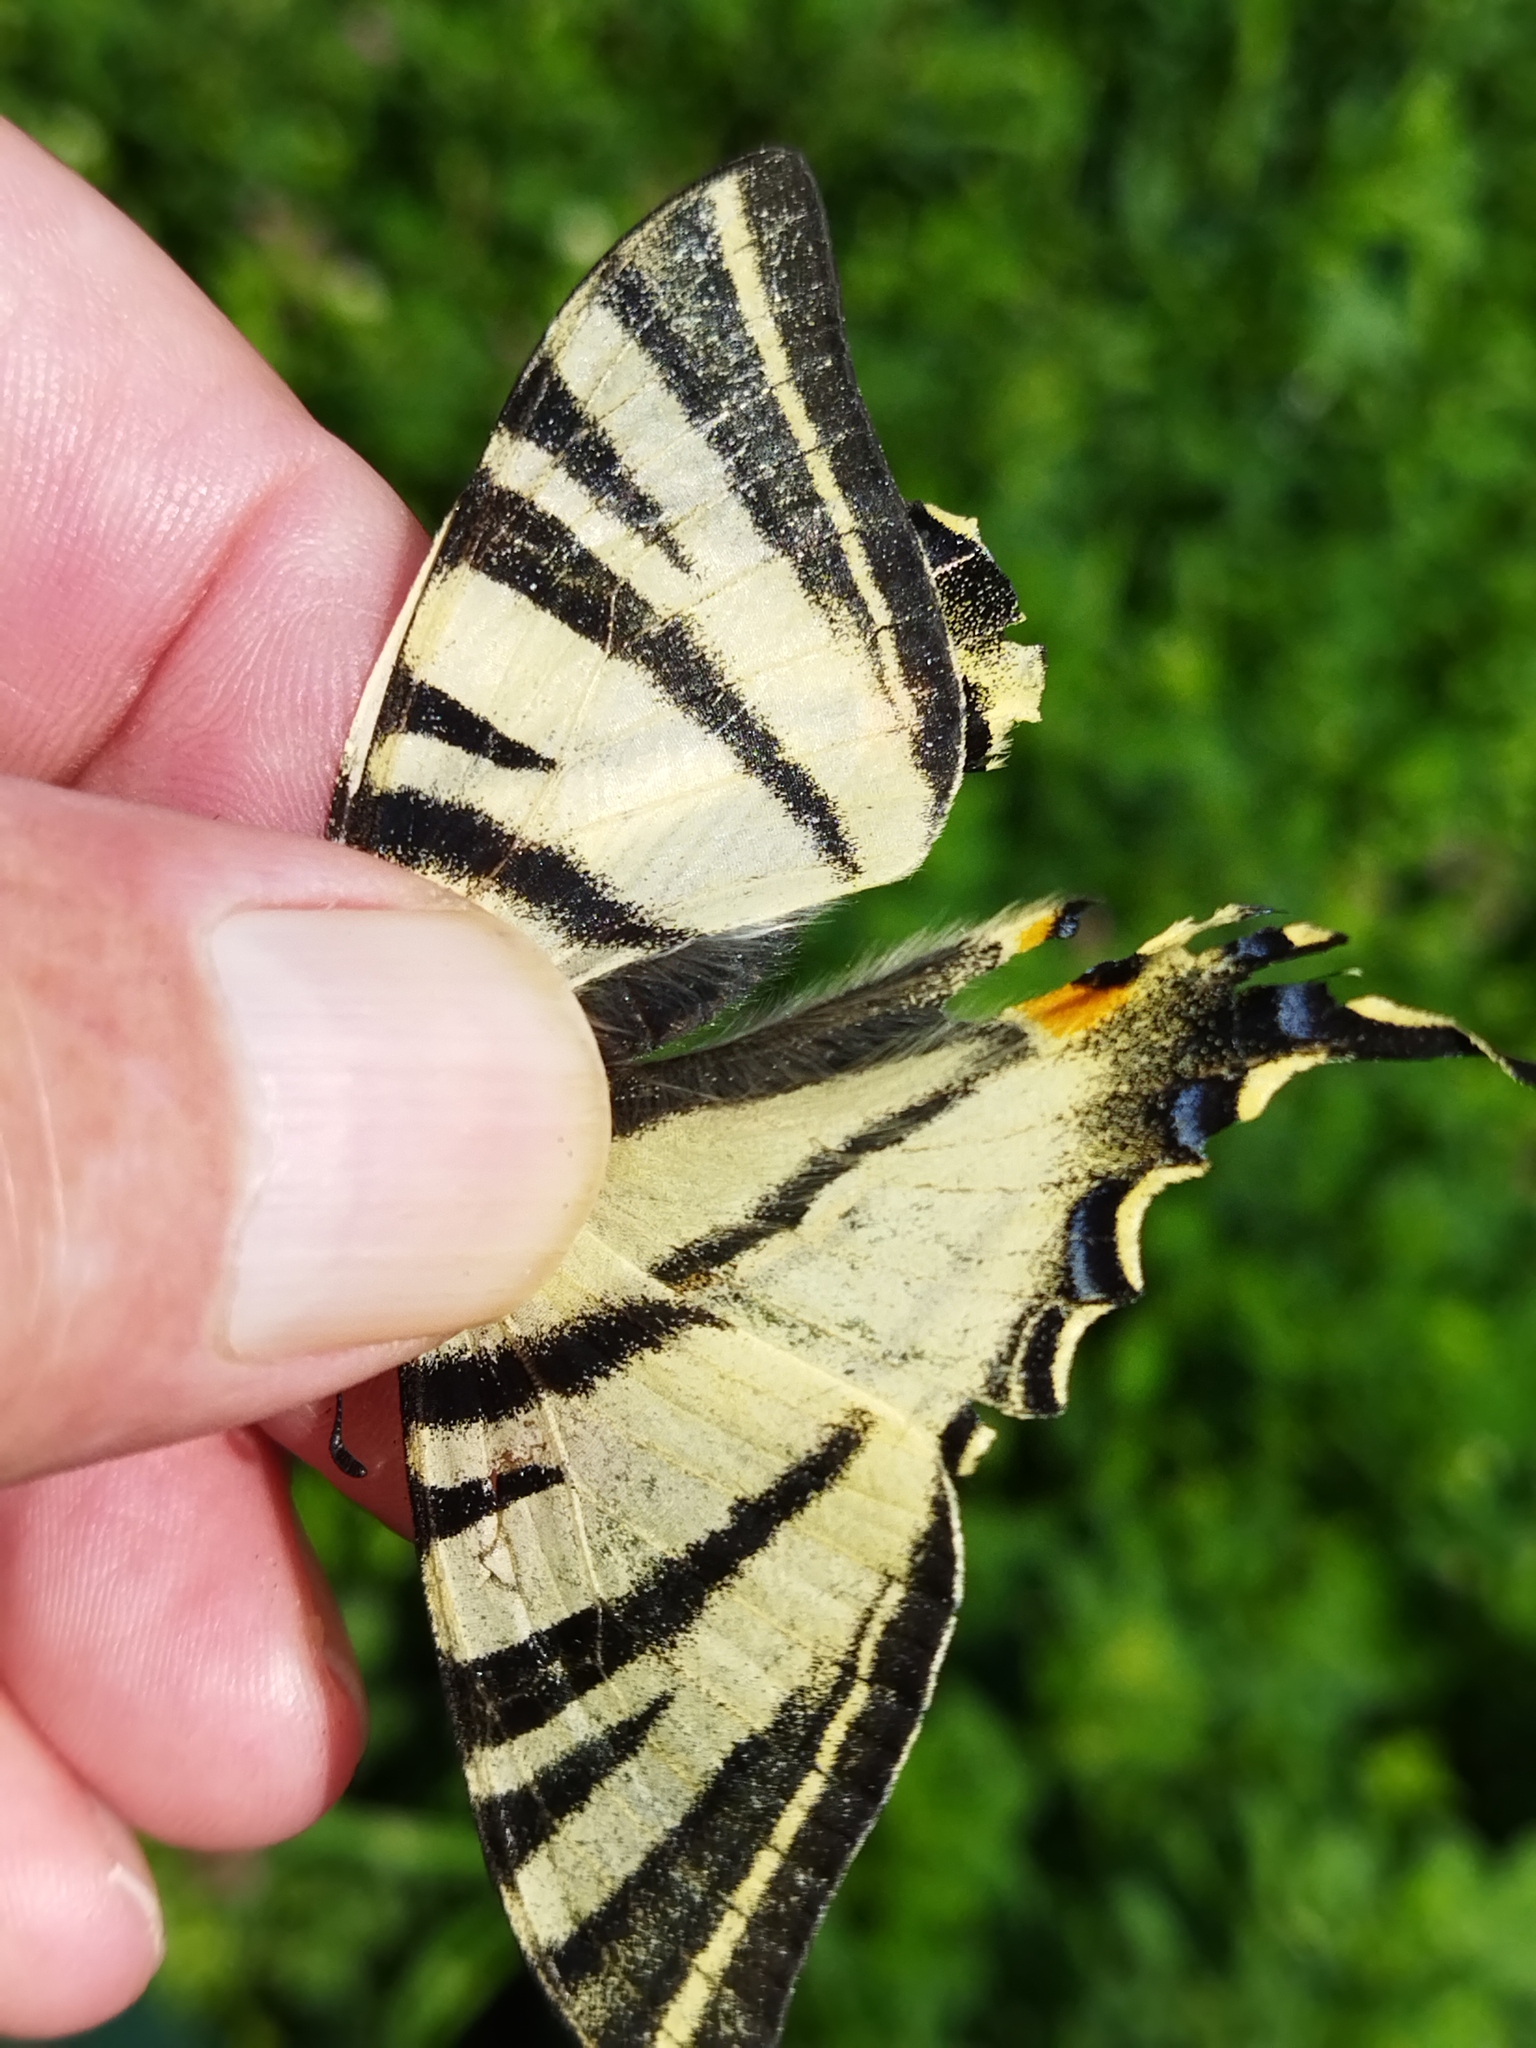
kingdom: Animalia
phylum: Arthropoda
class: Insecta
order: Lepidoptera
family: Papilionidae
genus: Iphiclides
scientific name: Iphiclides podalirius
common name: Scarce swallowtail
